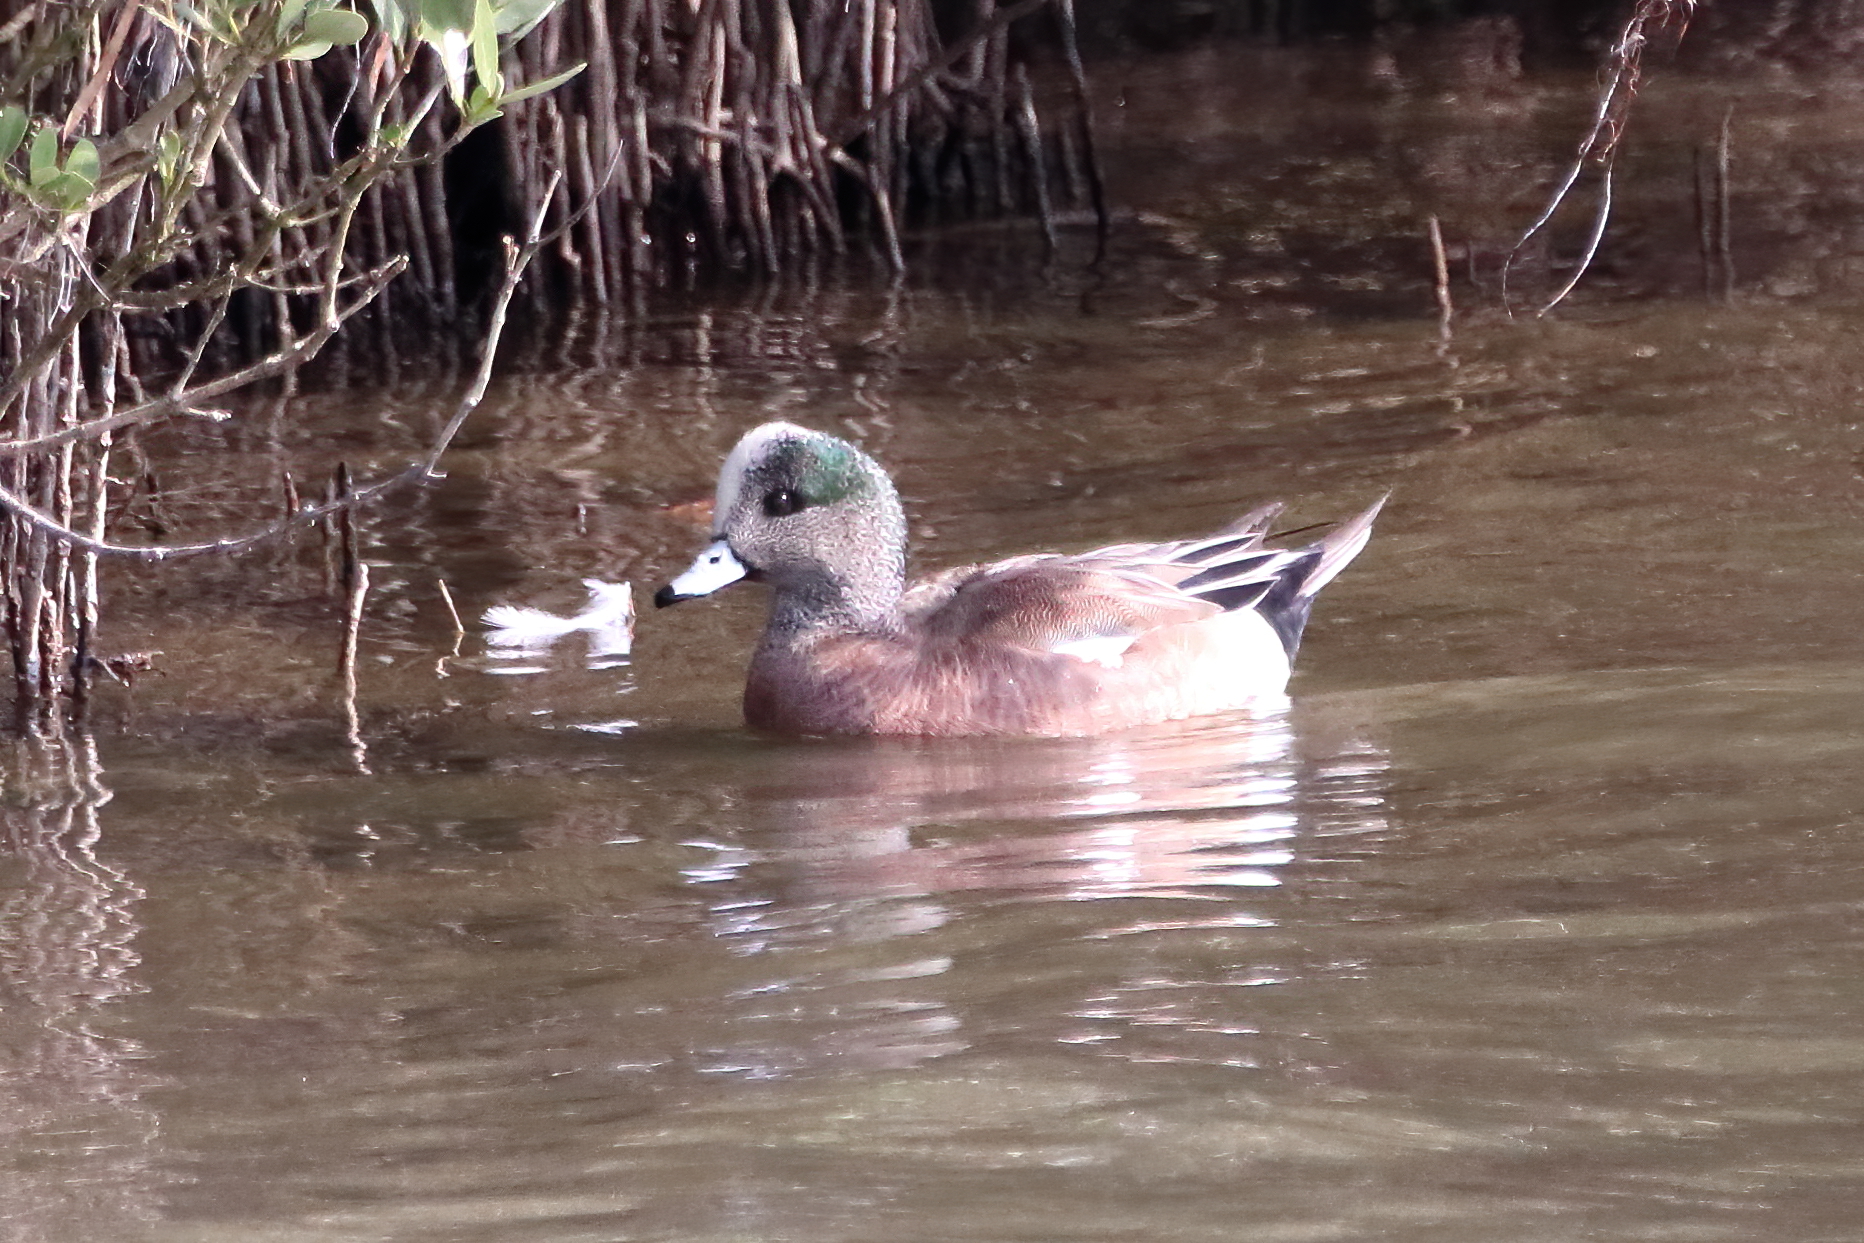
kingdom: Animalia
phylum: Chordata
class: Aves
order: Anseriformes
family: Anatidae
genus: Mareca
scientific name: Mareca americana
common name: American wigeon
